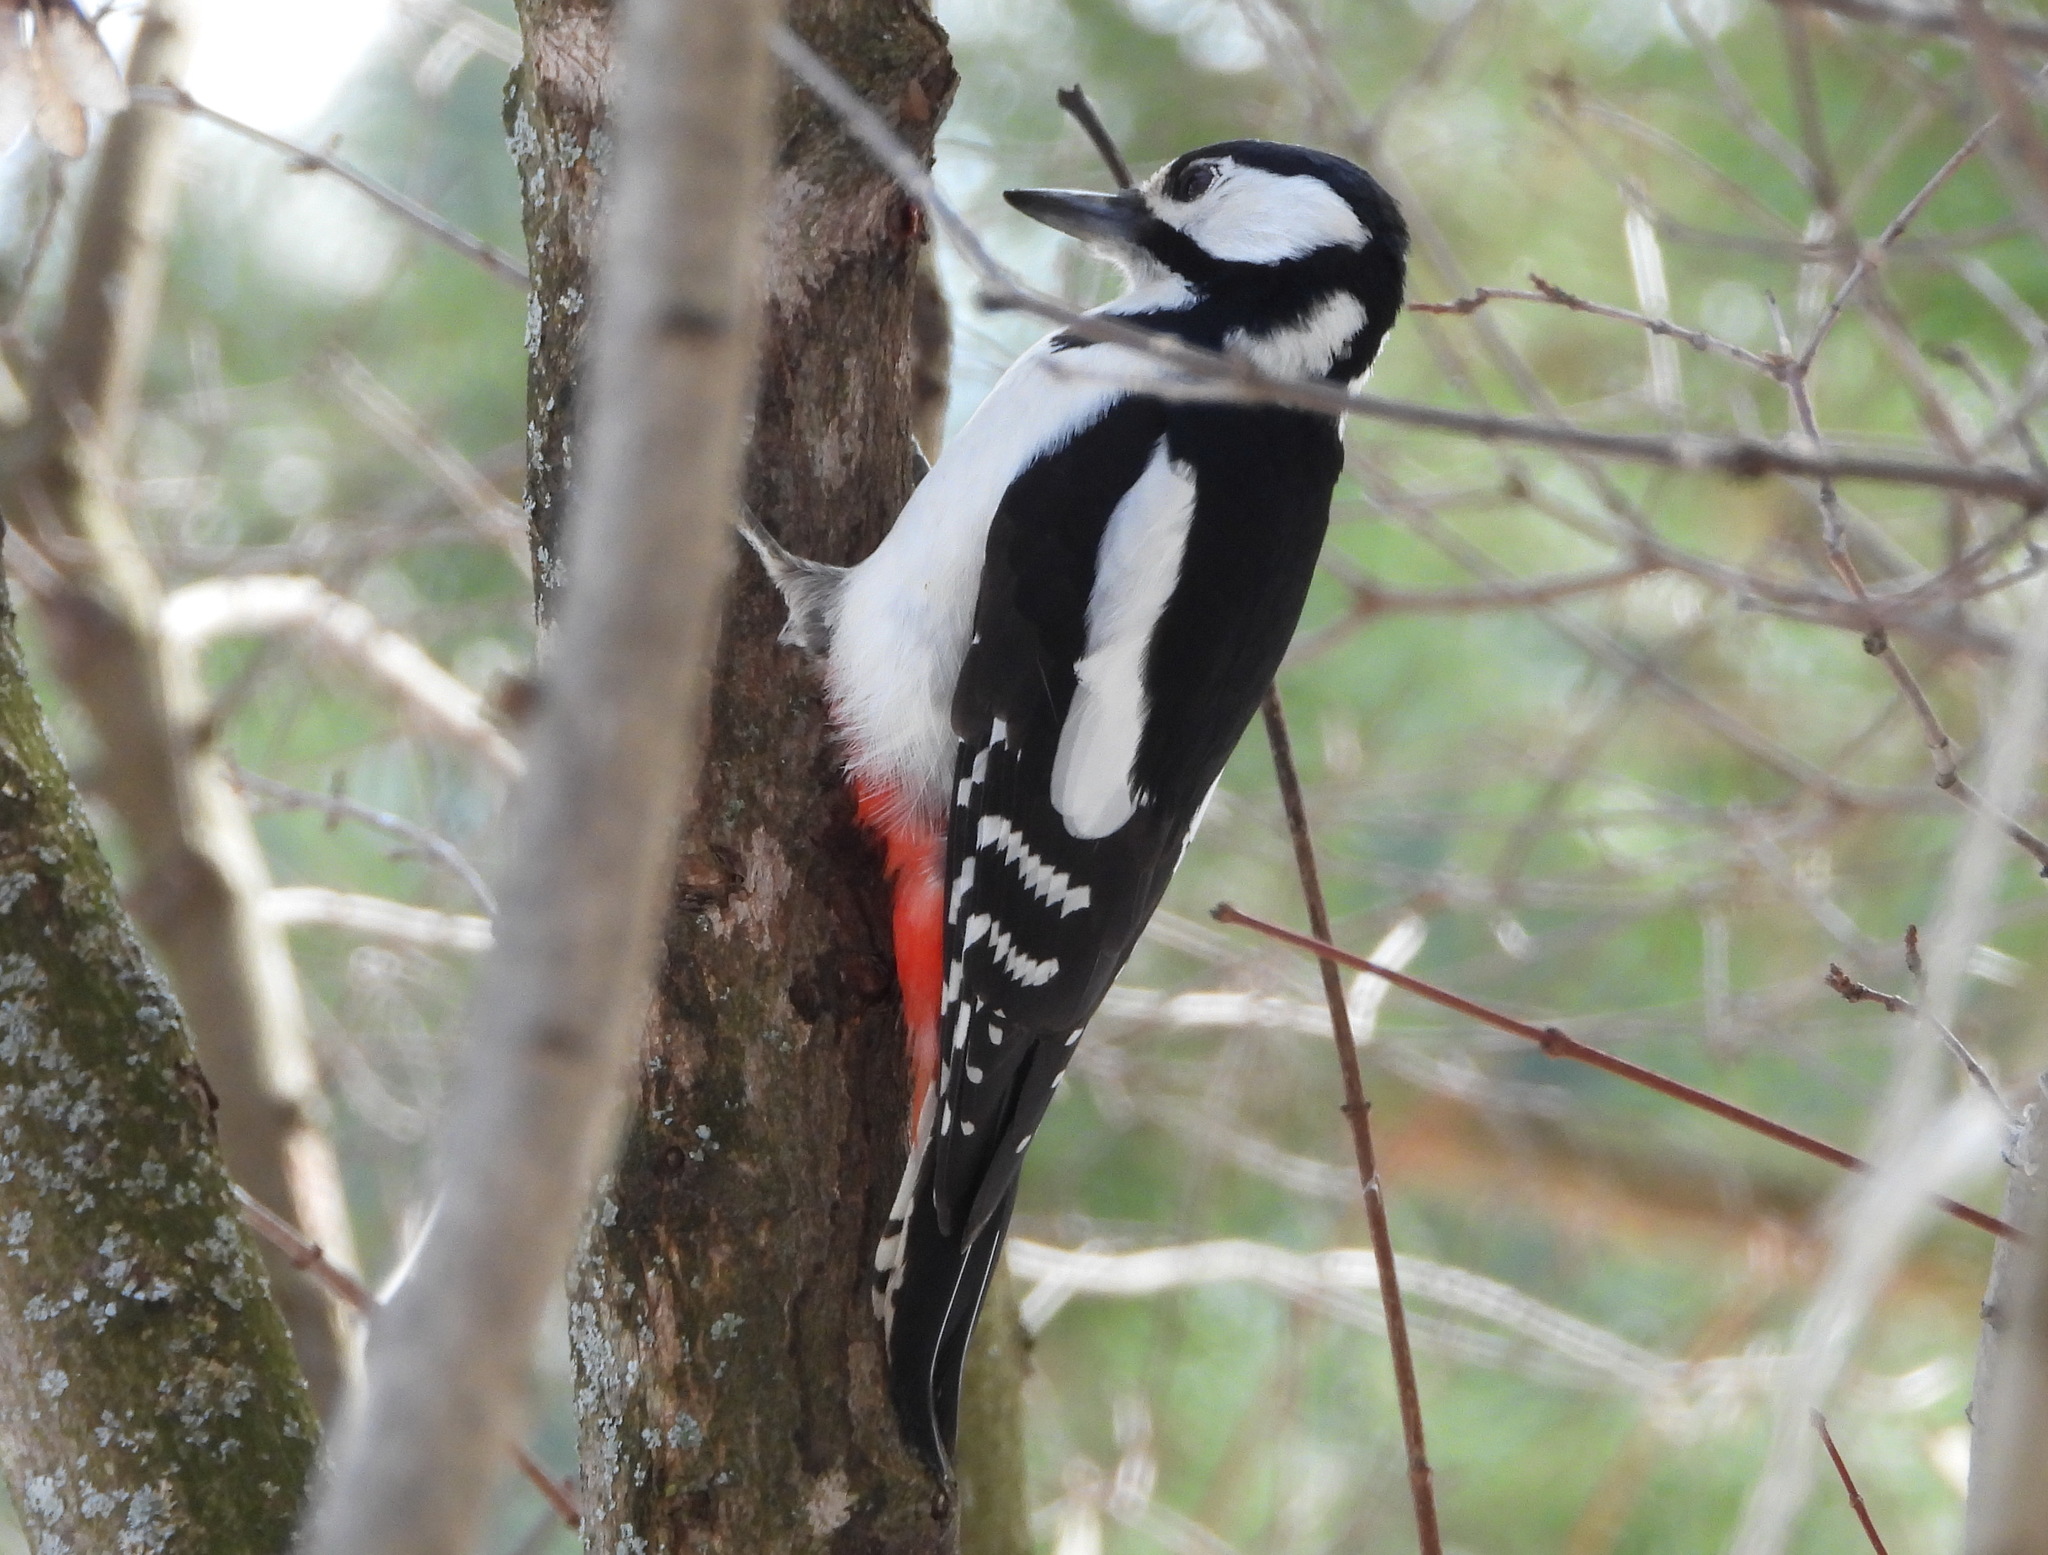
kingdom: Animalia
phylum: Chordata
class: Aves
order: Piciformes
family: Picidae
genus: Dendrocopos
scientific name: Dendrocopos major
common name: Great spotted woodpecker
